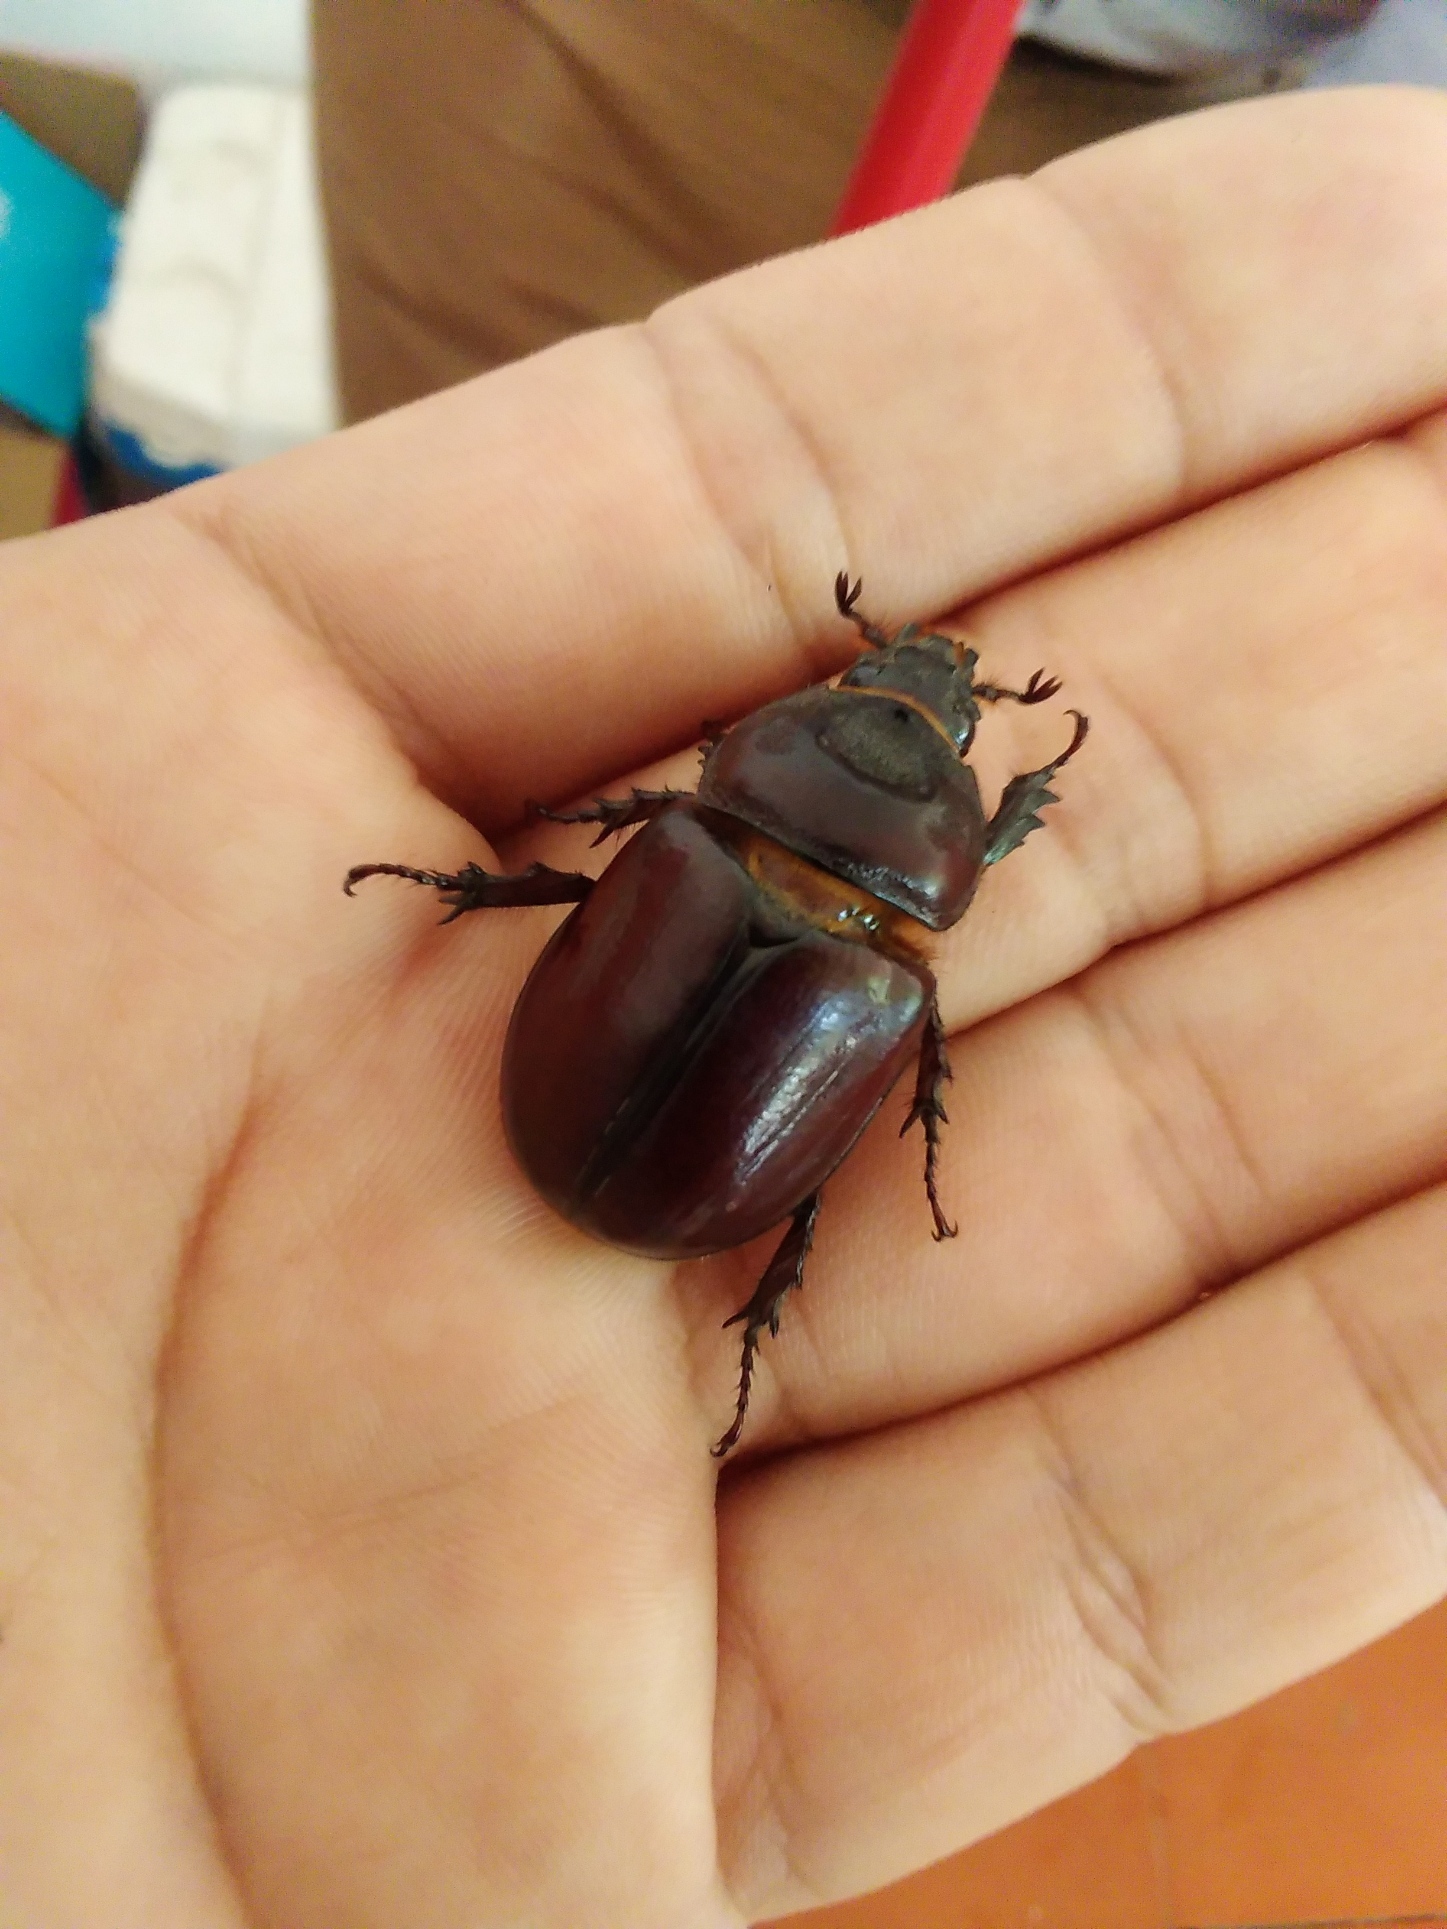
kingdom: Animalia
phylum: Arthropoda
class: Insecta
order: Coleoptera
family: Scarabaeidae
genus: Strategus
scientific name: Strategus aloeus
